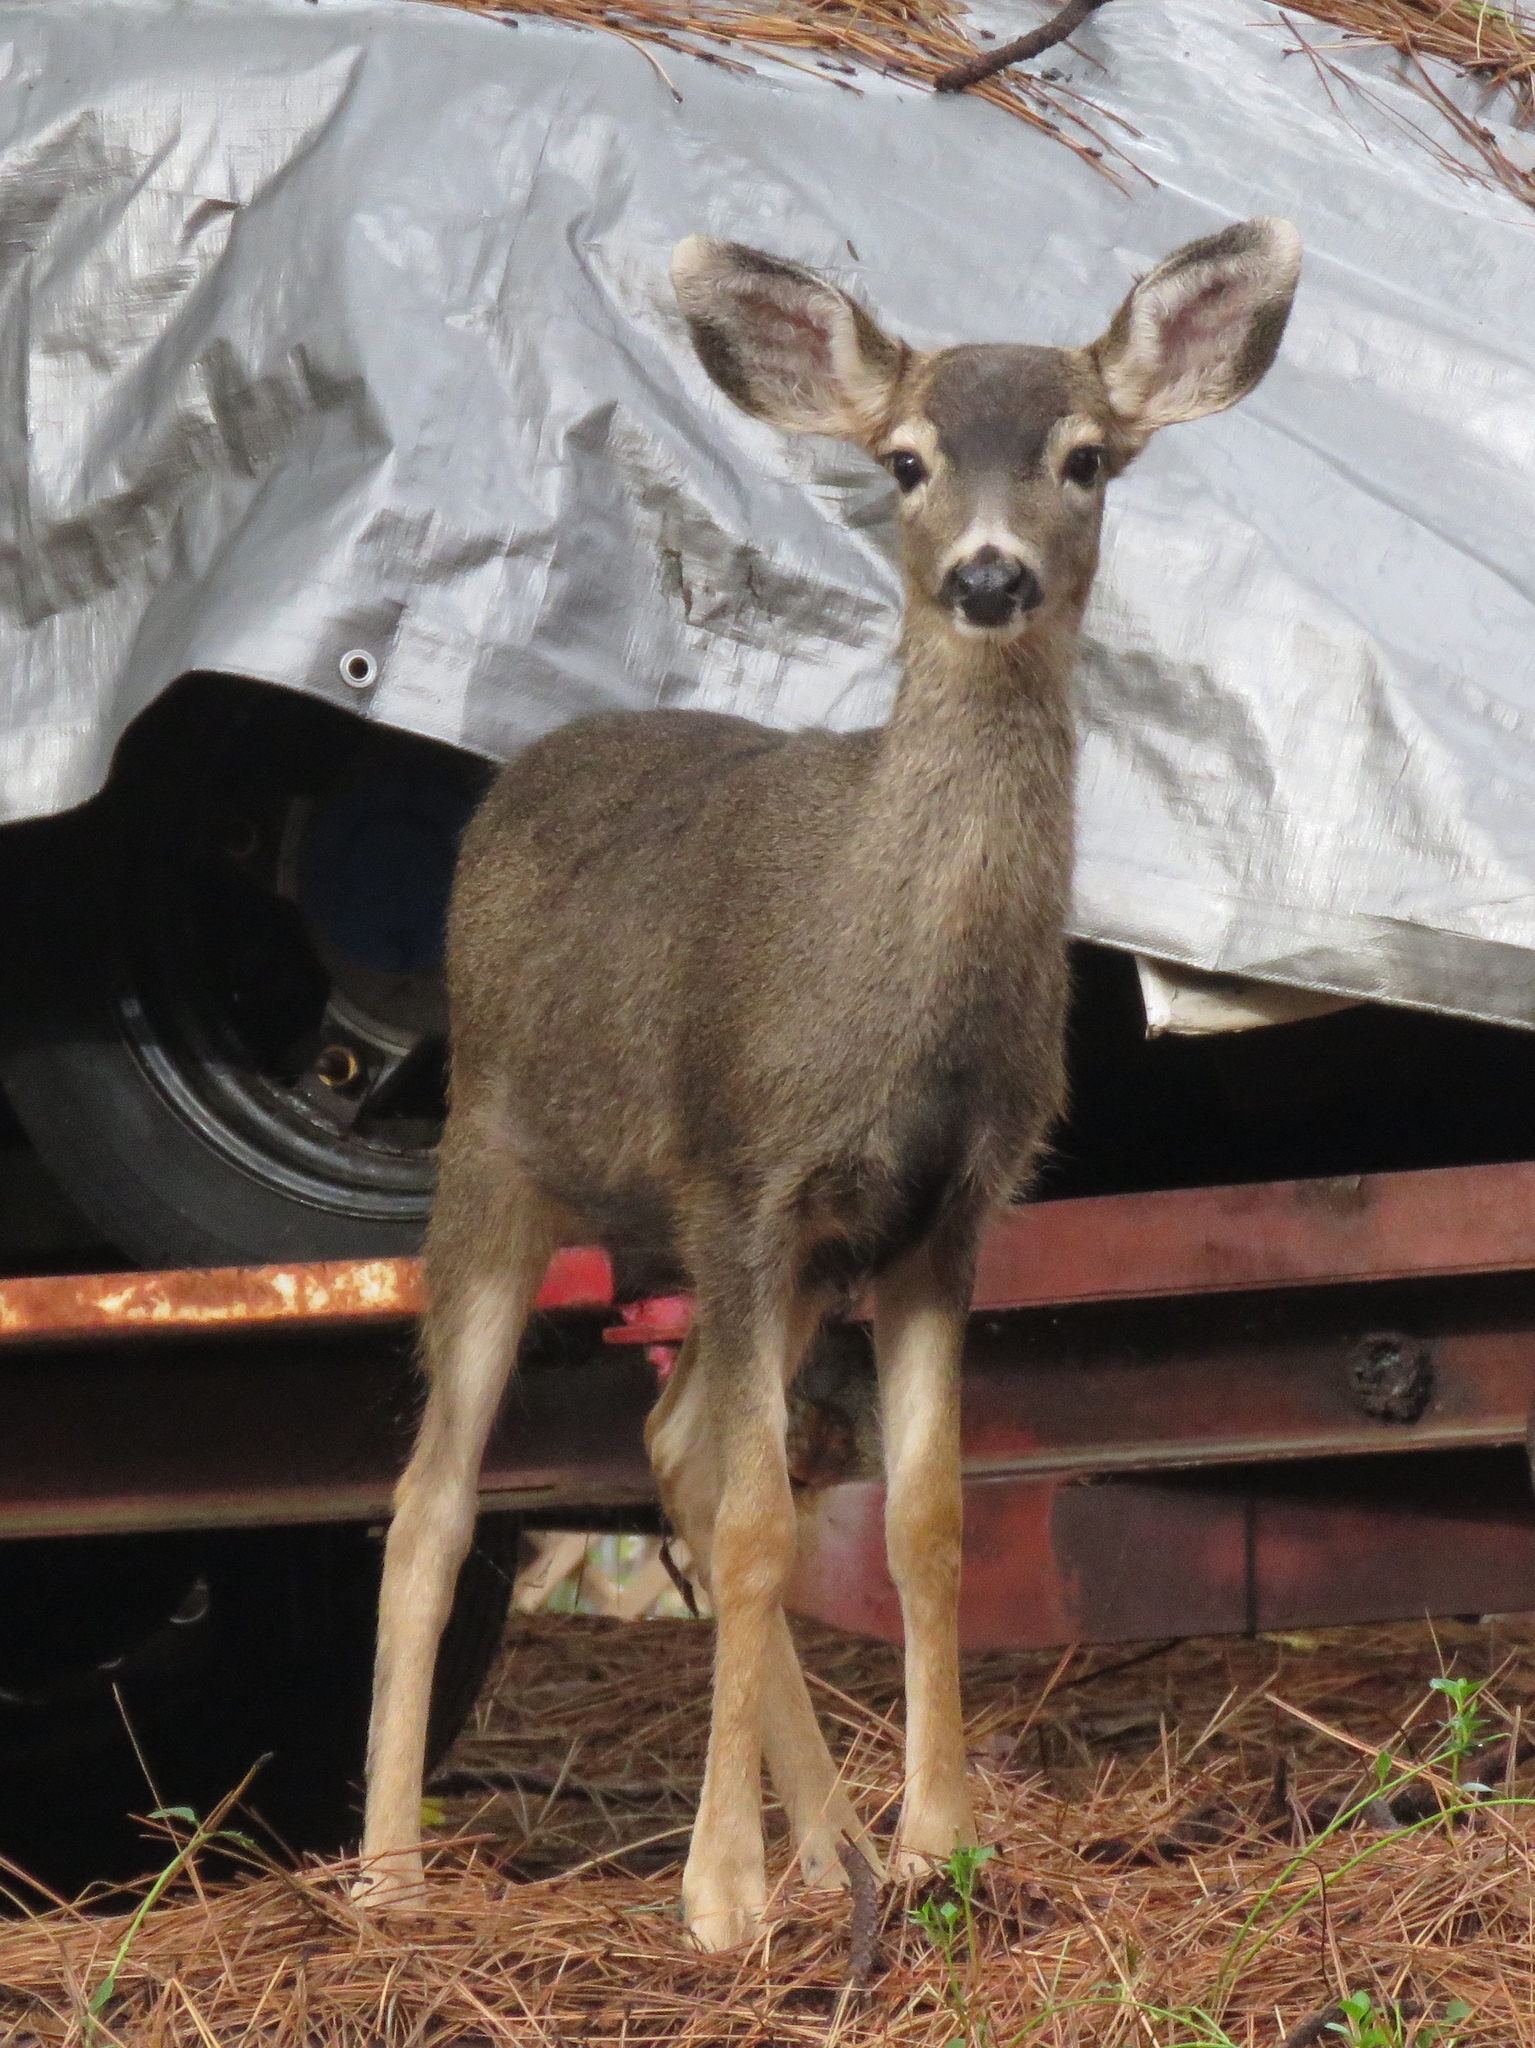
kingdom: Animalia
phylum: Chordata
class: Mammalia
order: Artiodactyla
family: Cervidae
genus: Odocoileus
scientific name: Odocoileus hemionus
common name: Mule deer
